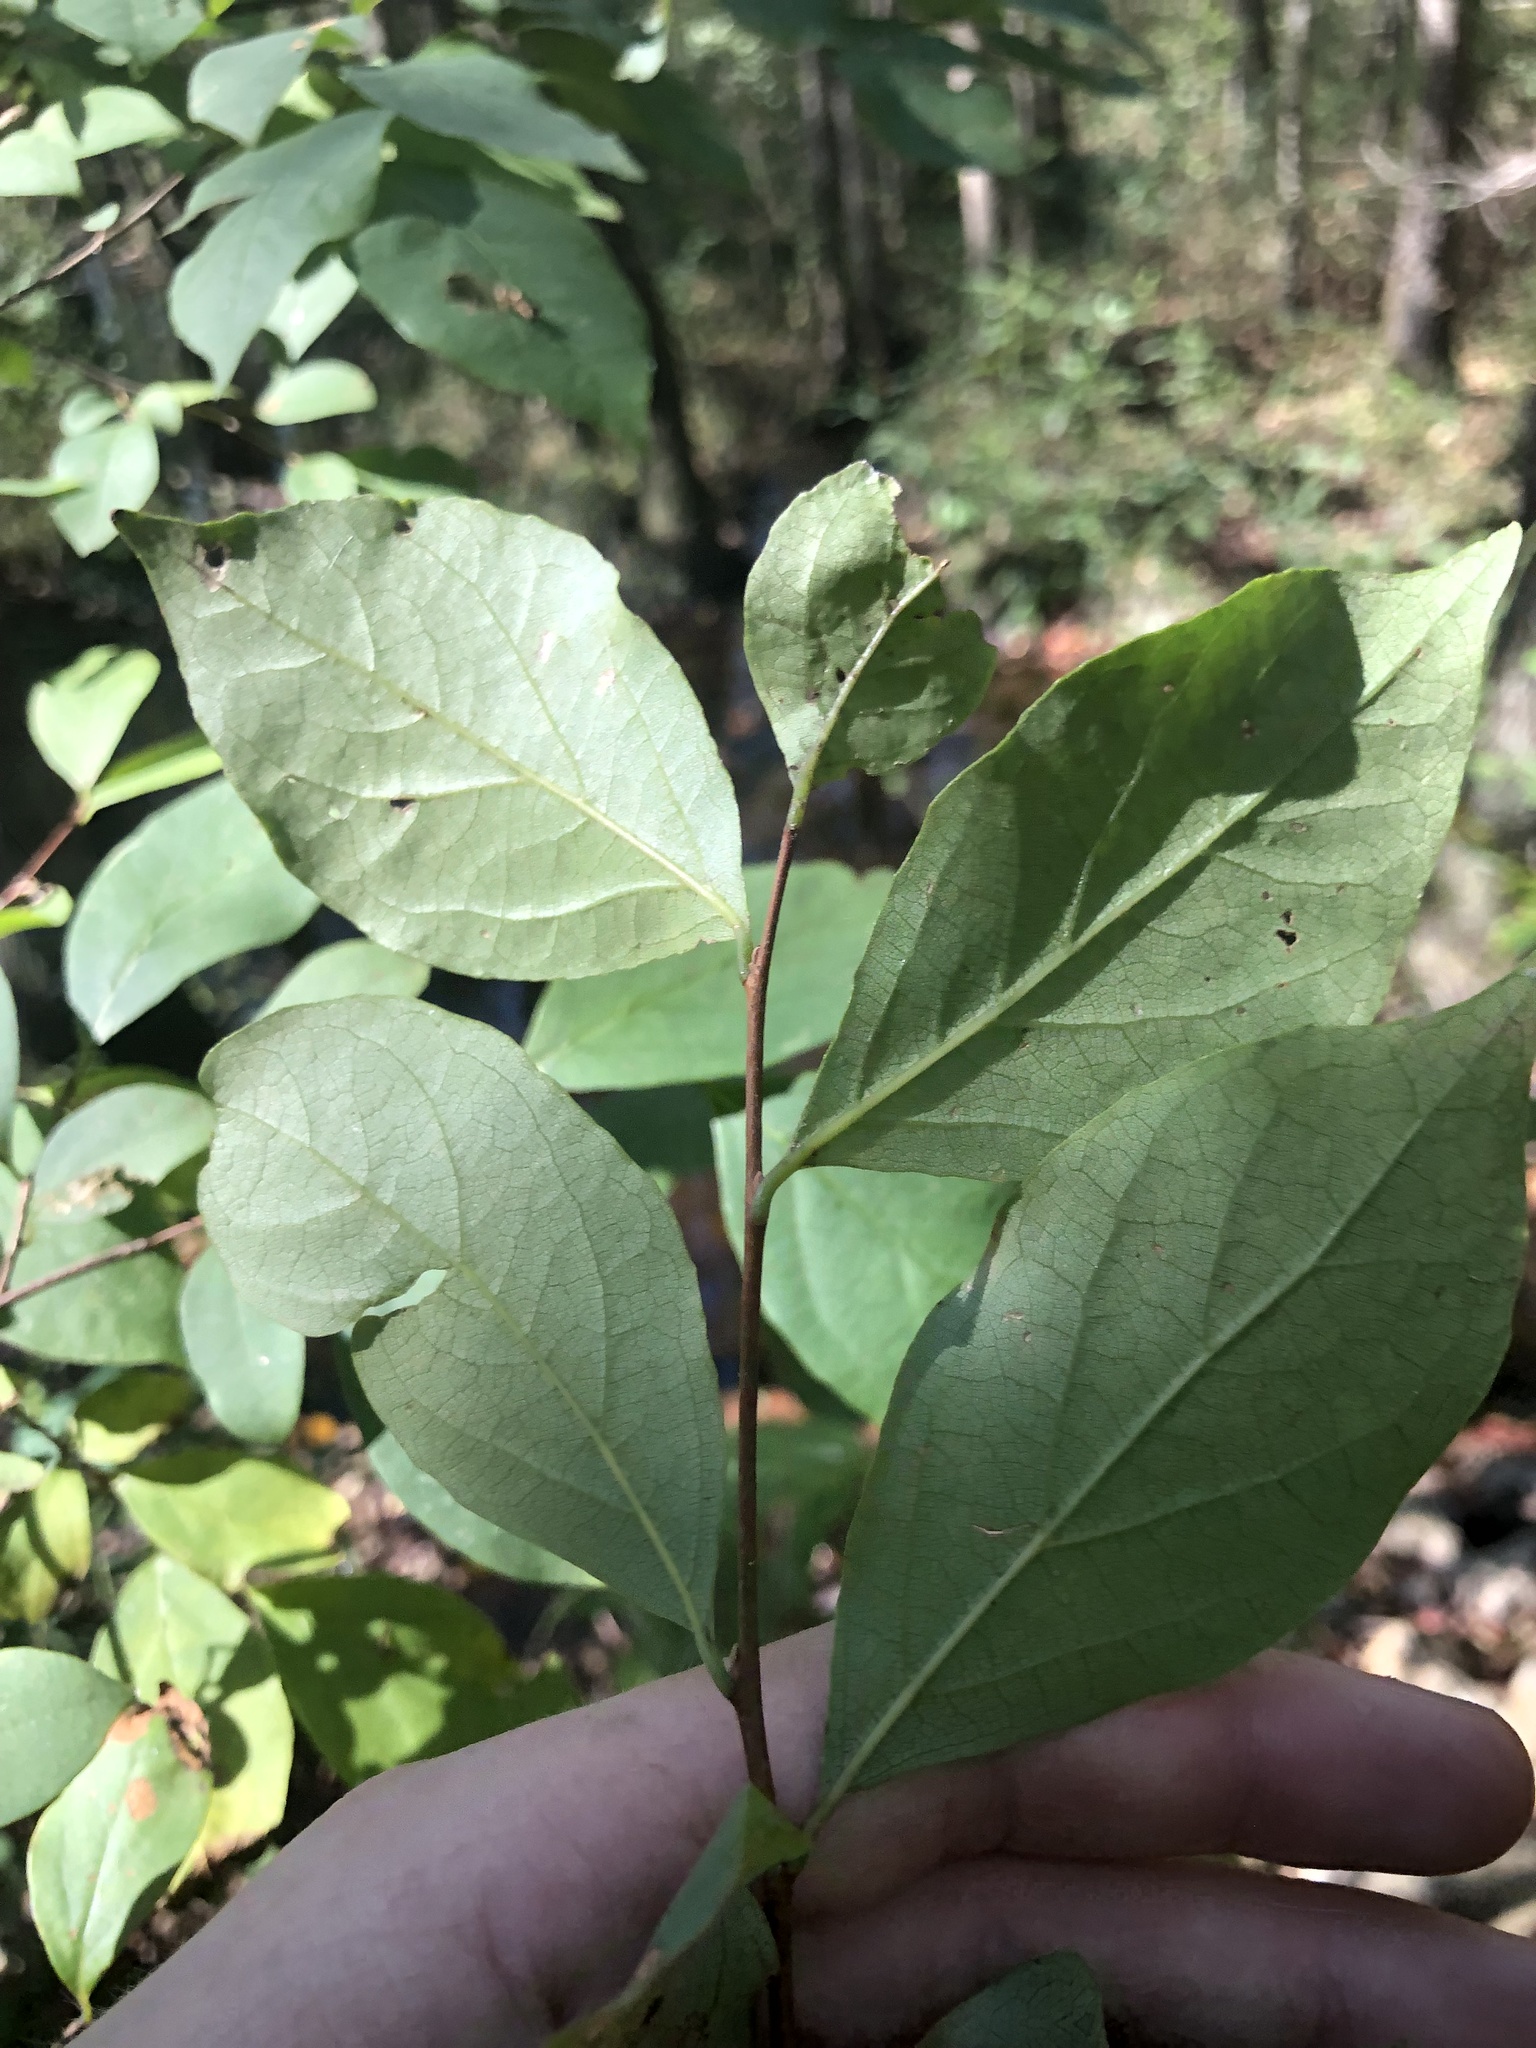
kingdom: Plantae
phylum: Tracheophyta
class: Magnoliopsida
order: Ericales
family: Styracaceae
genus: Styrax
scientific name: Styrax americanus
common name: American snowbell
